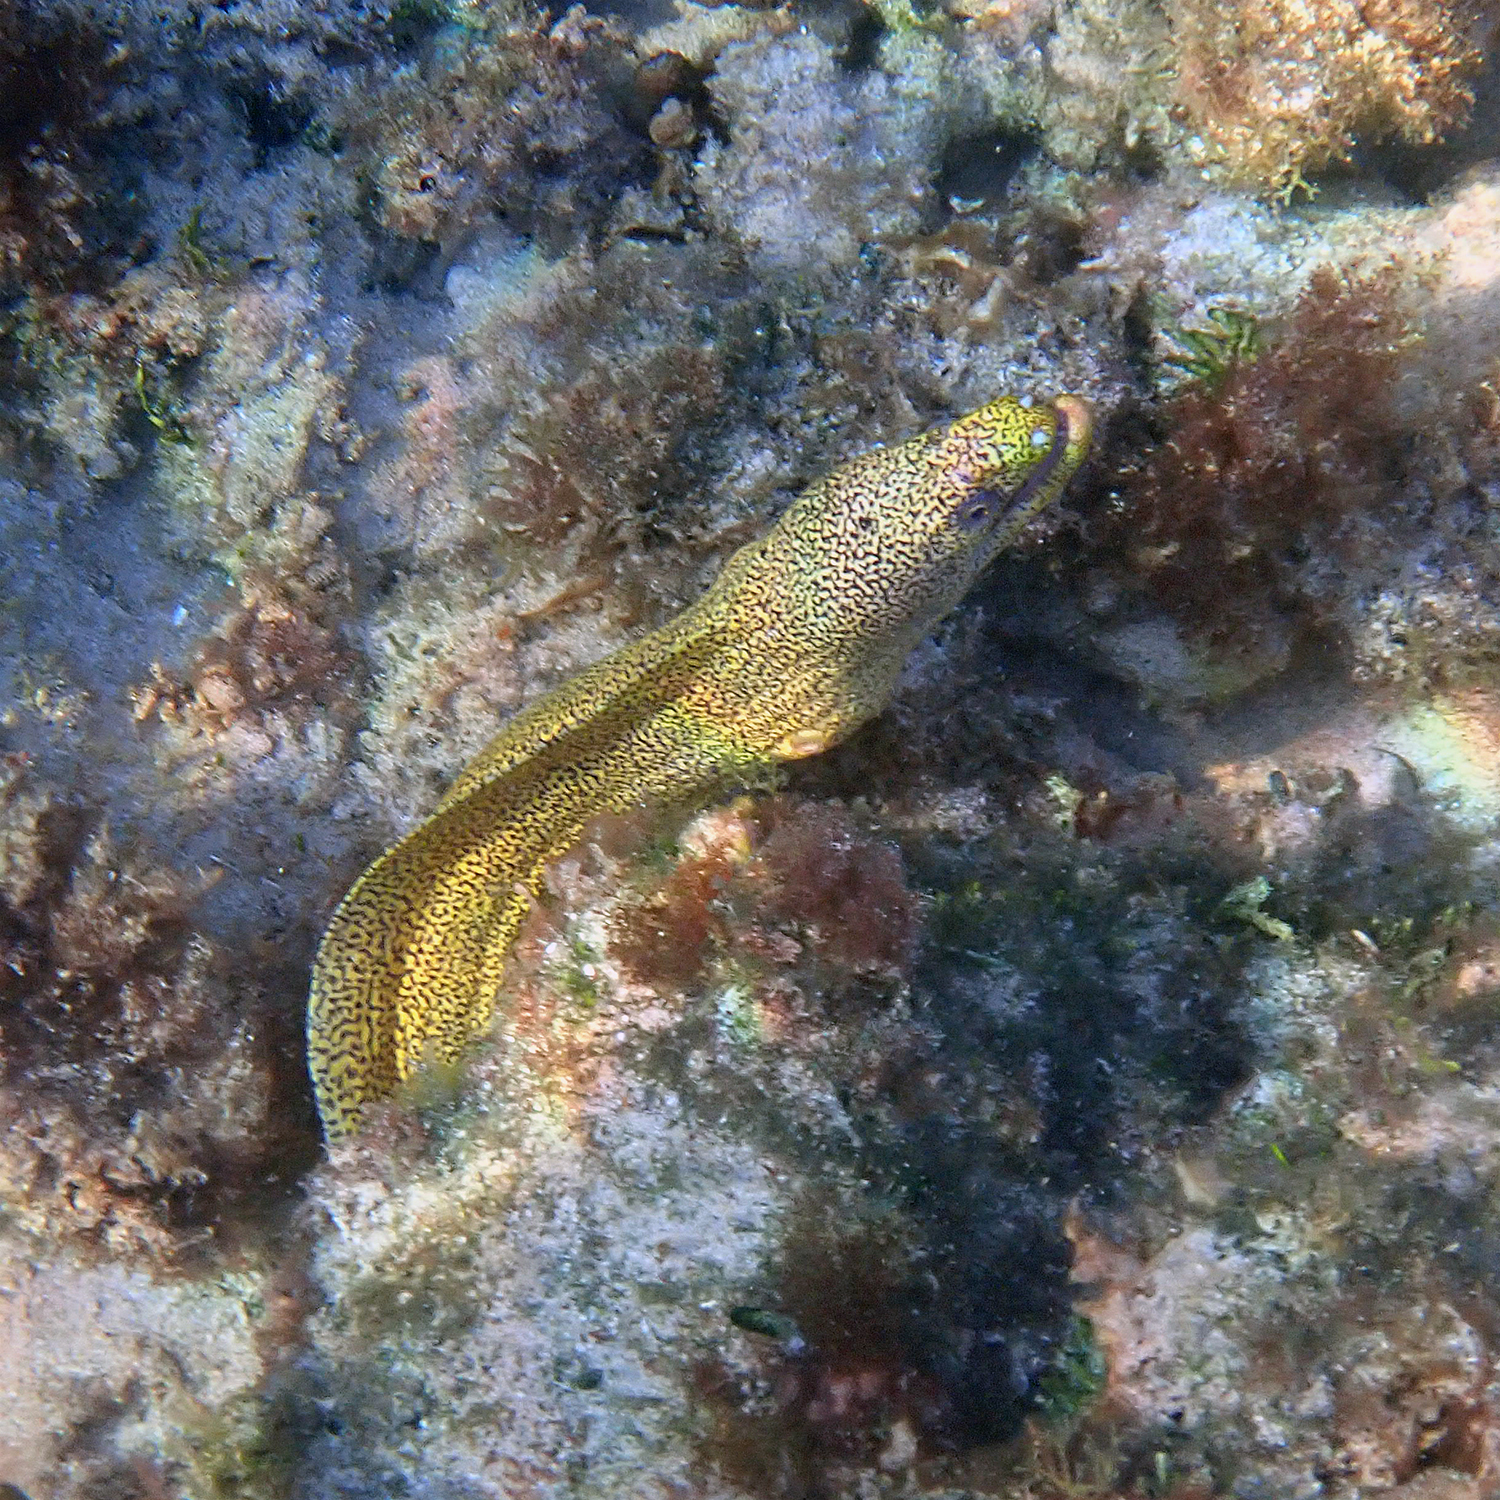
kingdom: Animalia
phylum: Chordata
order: Anguilliformes
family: Muraenidae
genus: Gymnothorax
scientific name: Gymnothorax eurostus
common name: Stout moray
